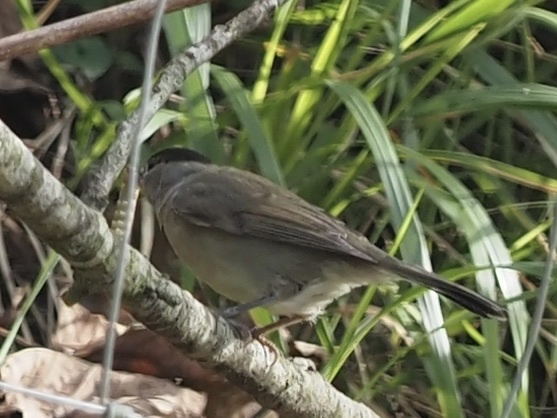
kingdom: Animalia
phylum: Chordata
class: Aves
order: Passeriformes
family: Sylviidae
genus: Sylvia
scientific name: Sylvia atricapilla
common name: Eurasian blackcap
